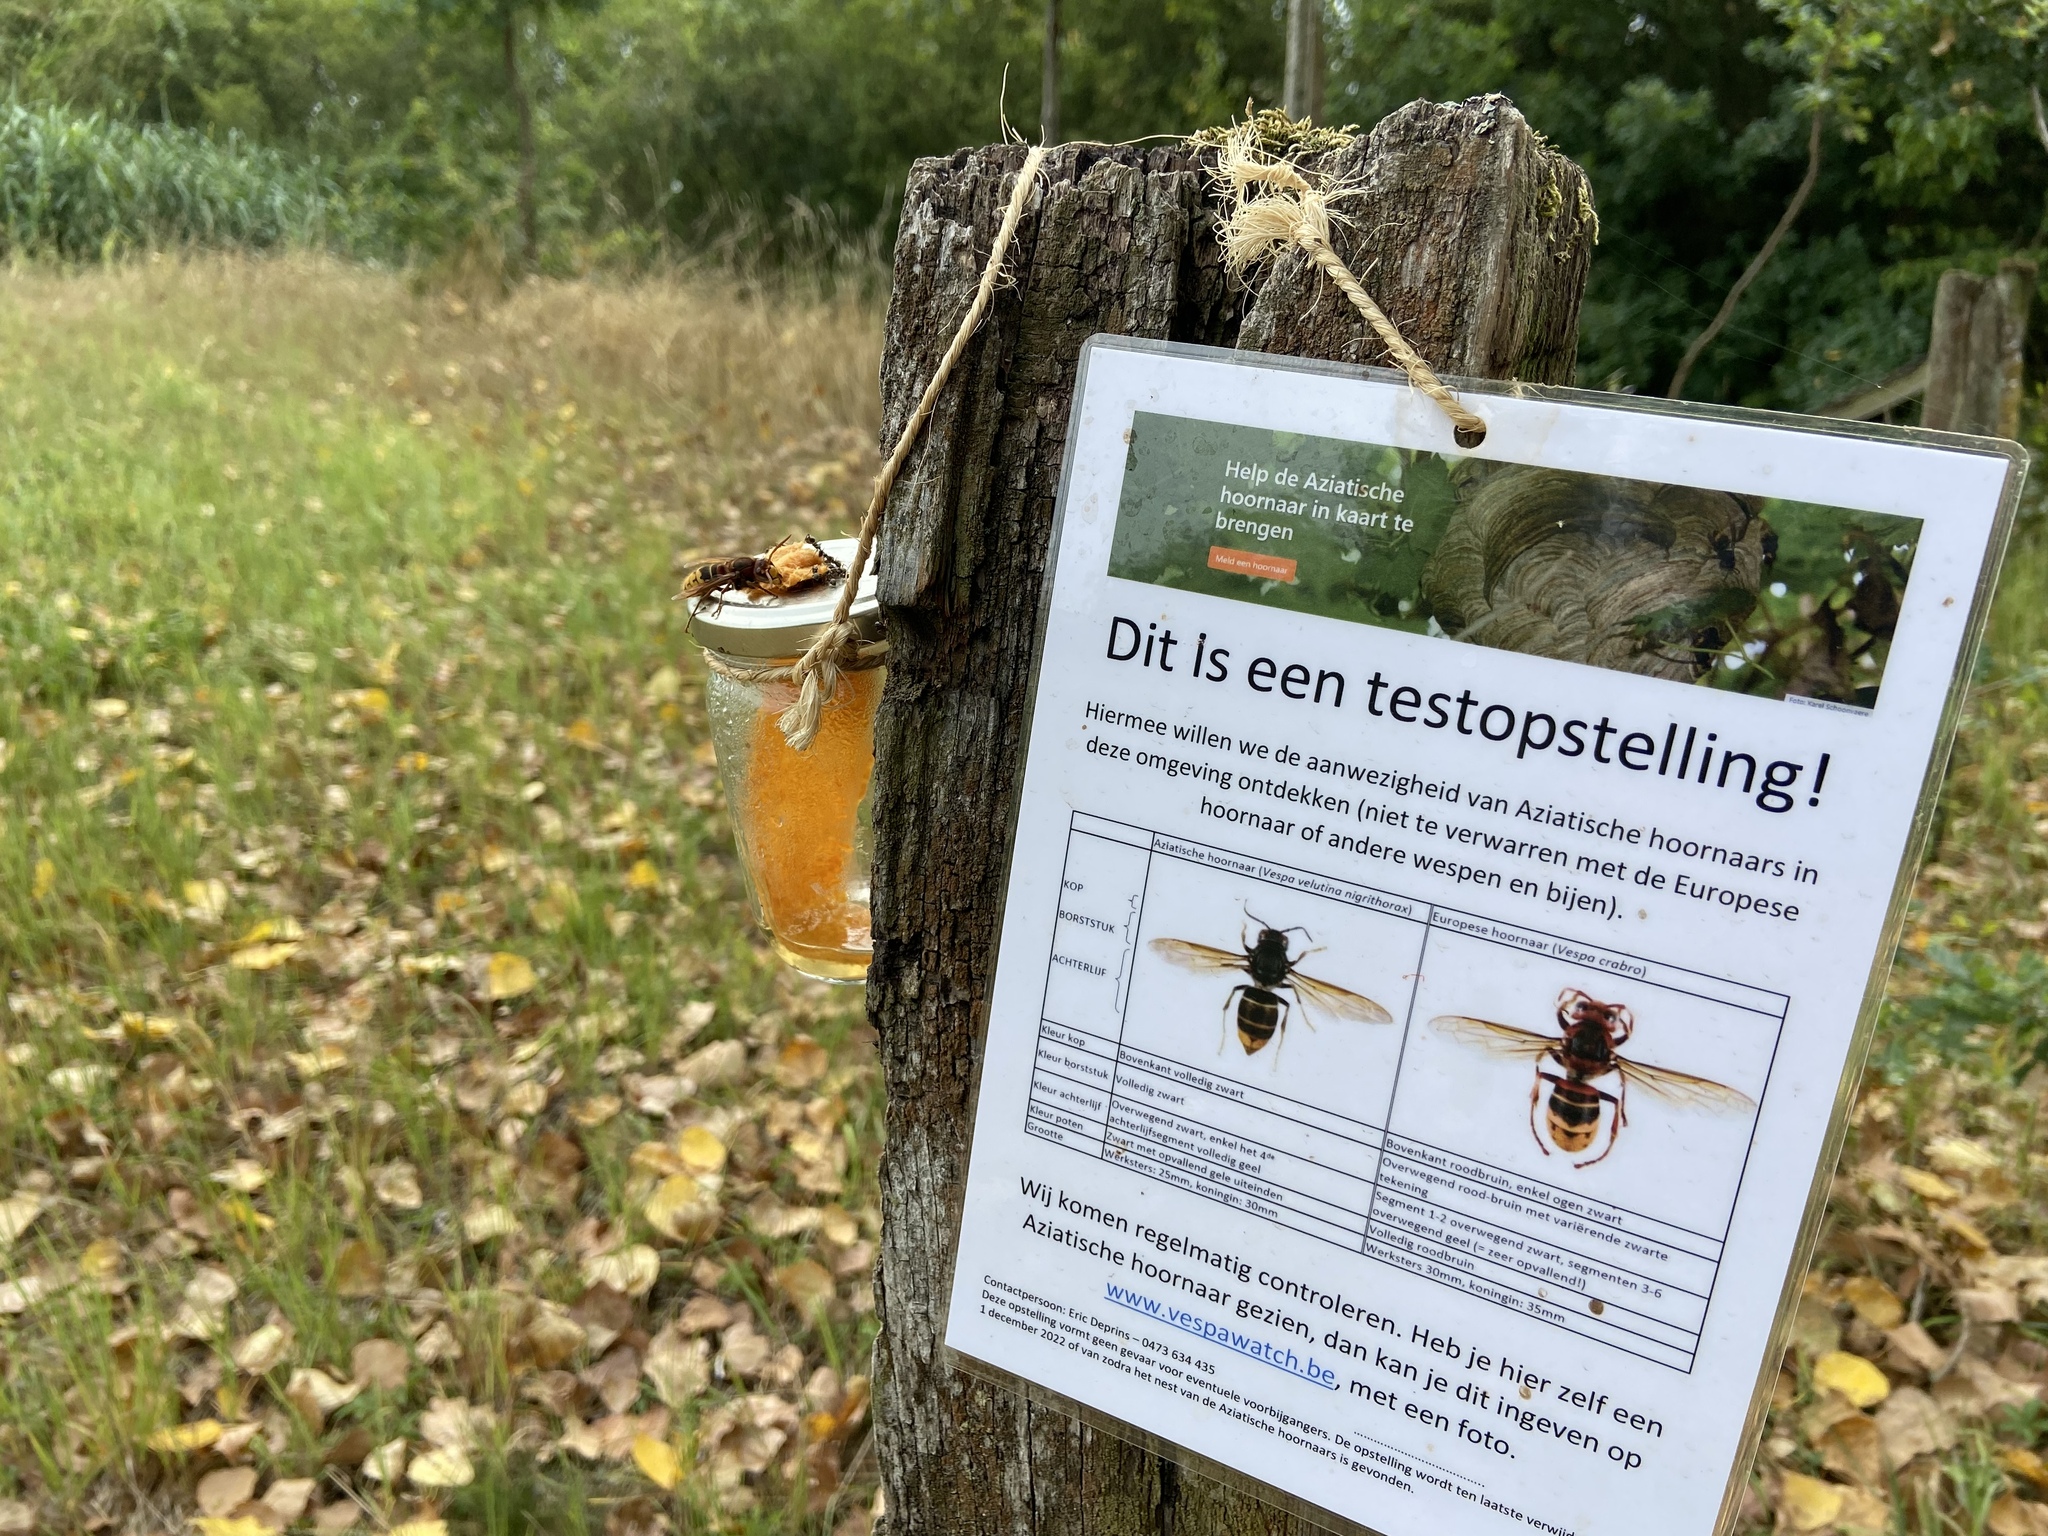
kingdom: Animalia
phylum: Arthropoda
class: Insecta
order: Hymenoptera
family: Vespidae
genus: Vespa
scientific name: Vespa crabro
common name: Hornet
